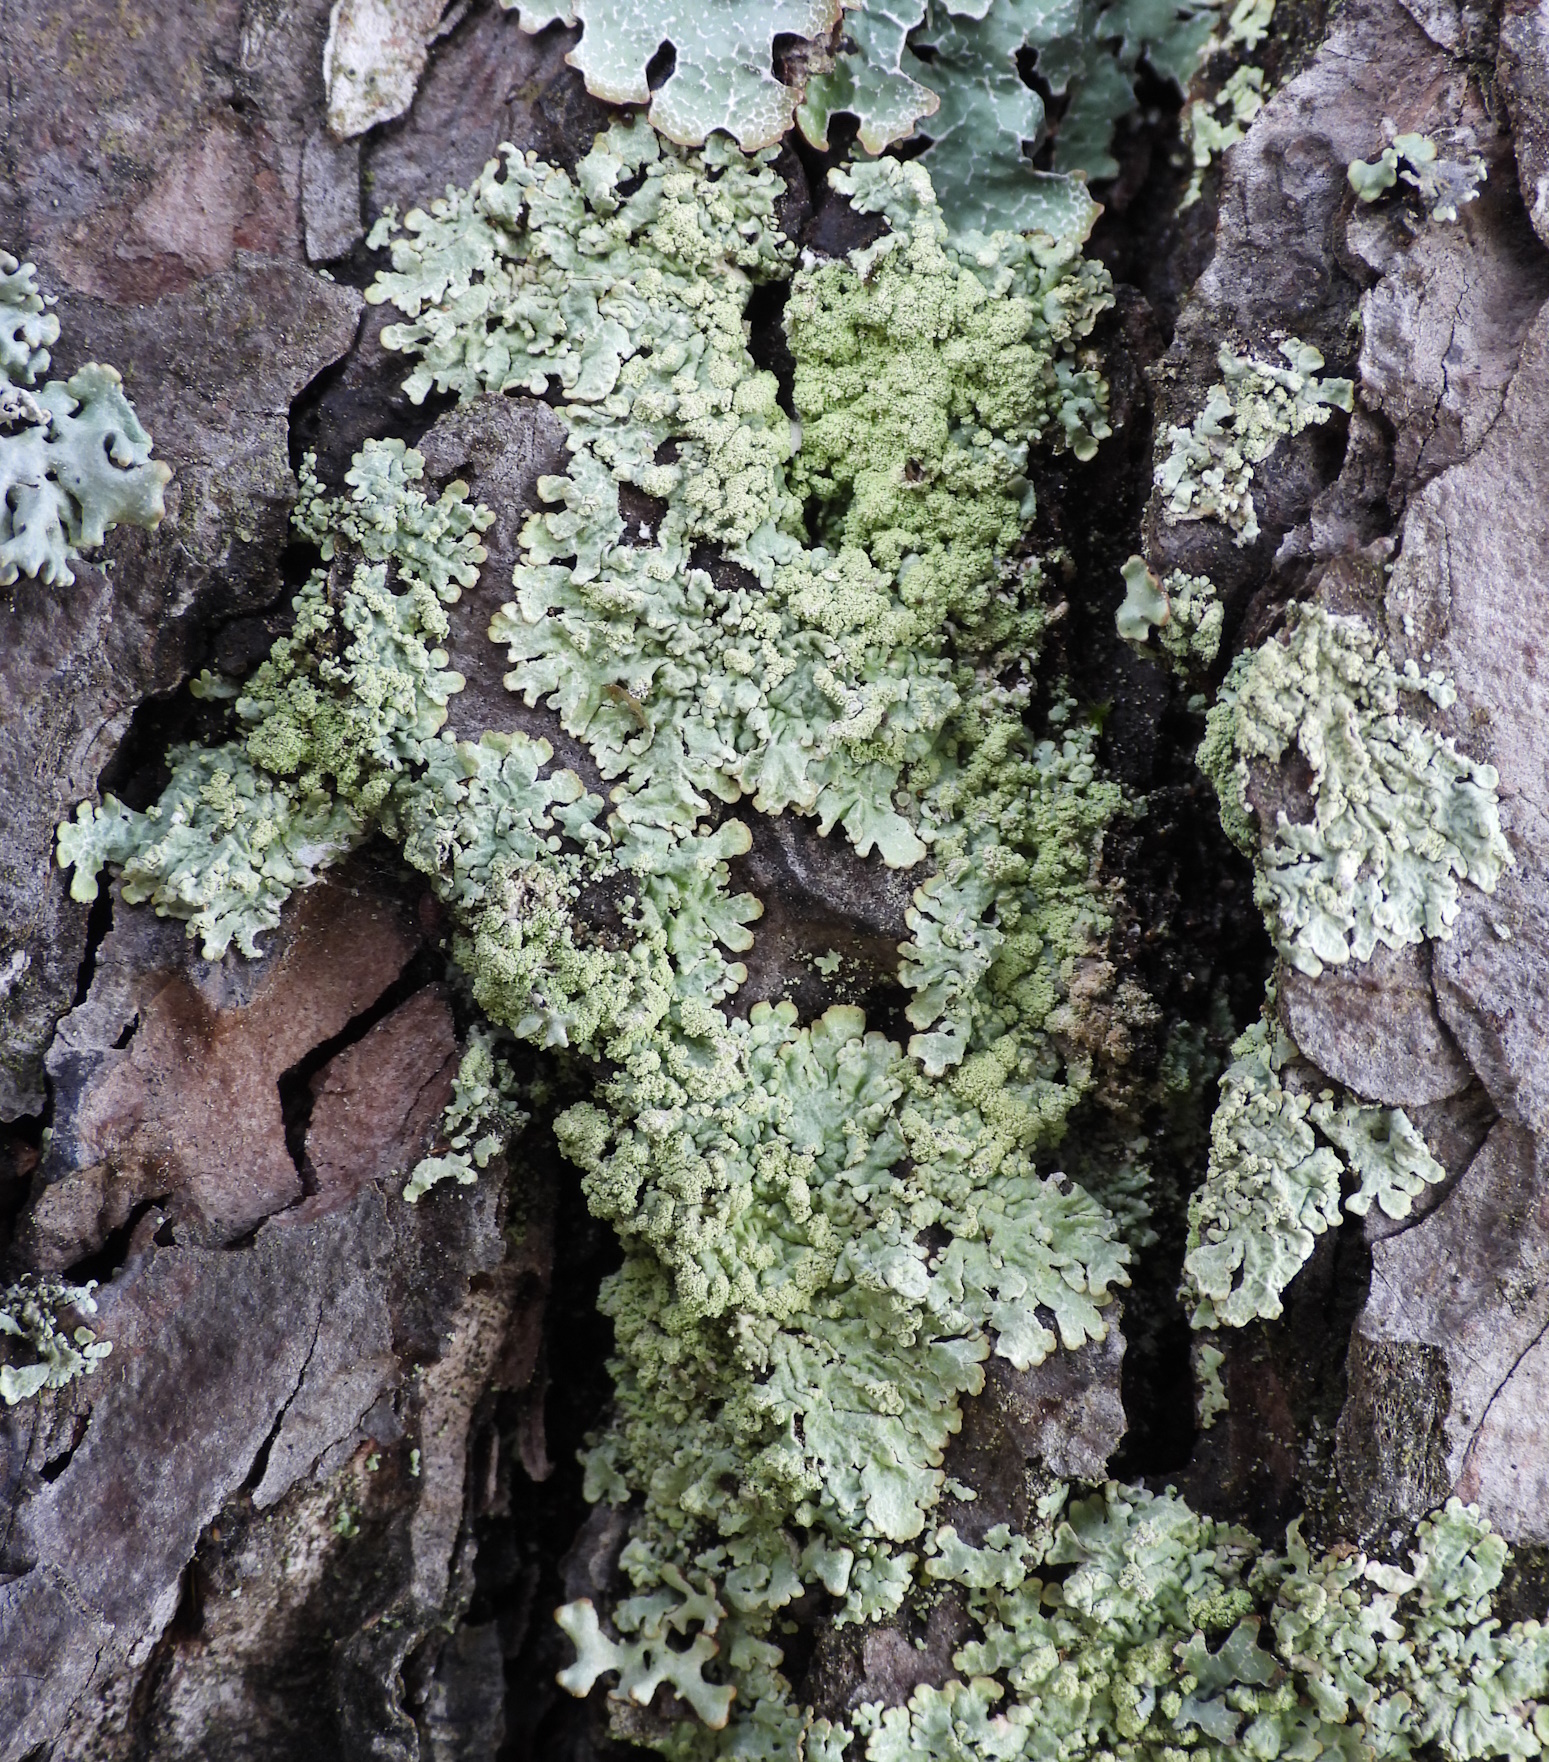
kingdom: Fungi
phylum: Ascomycota
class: Lecanoromycetes
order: Lecanorales
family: Parmeliaceae
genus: Parmeliopsis
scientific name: Parmeliopsis ambigua
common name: Green starburst lichen
